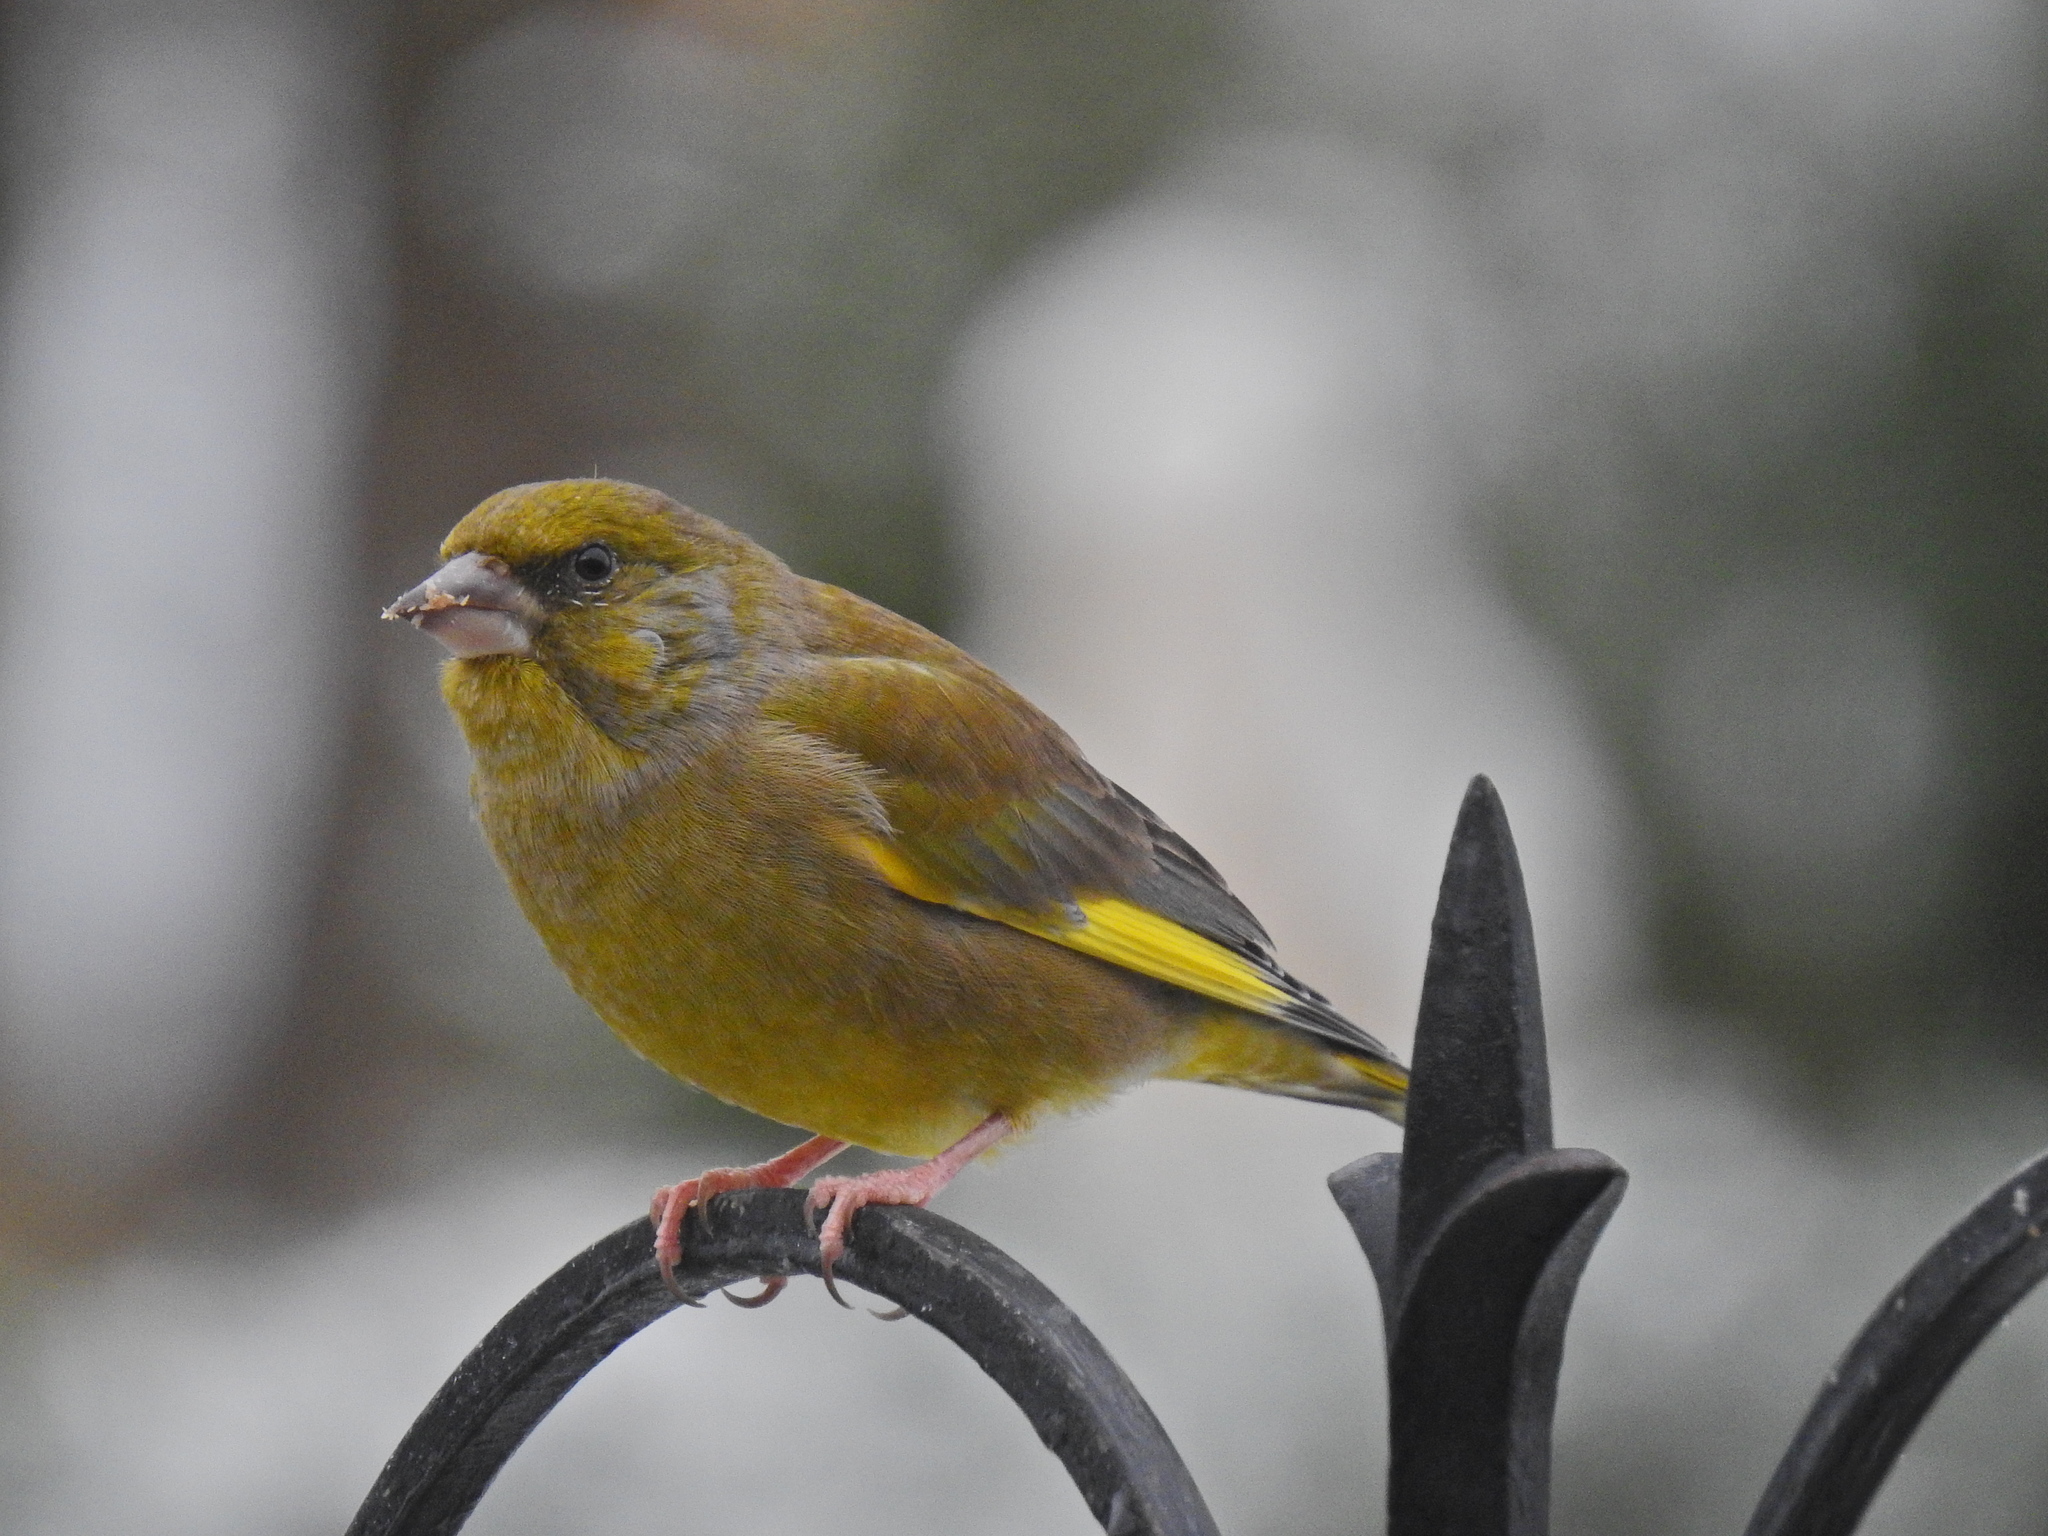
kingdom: Plantae
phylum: Tracheophyta
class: Liliopsida
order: Poales
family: Poaceae
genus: Chloris
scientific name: Chloris chloris
